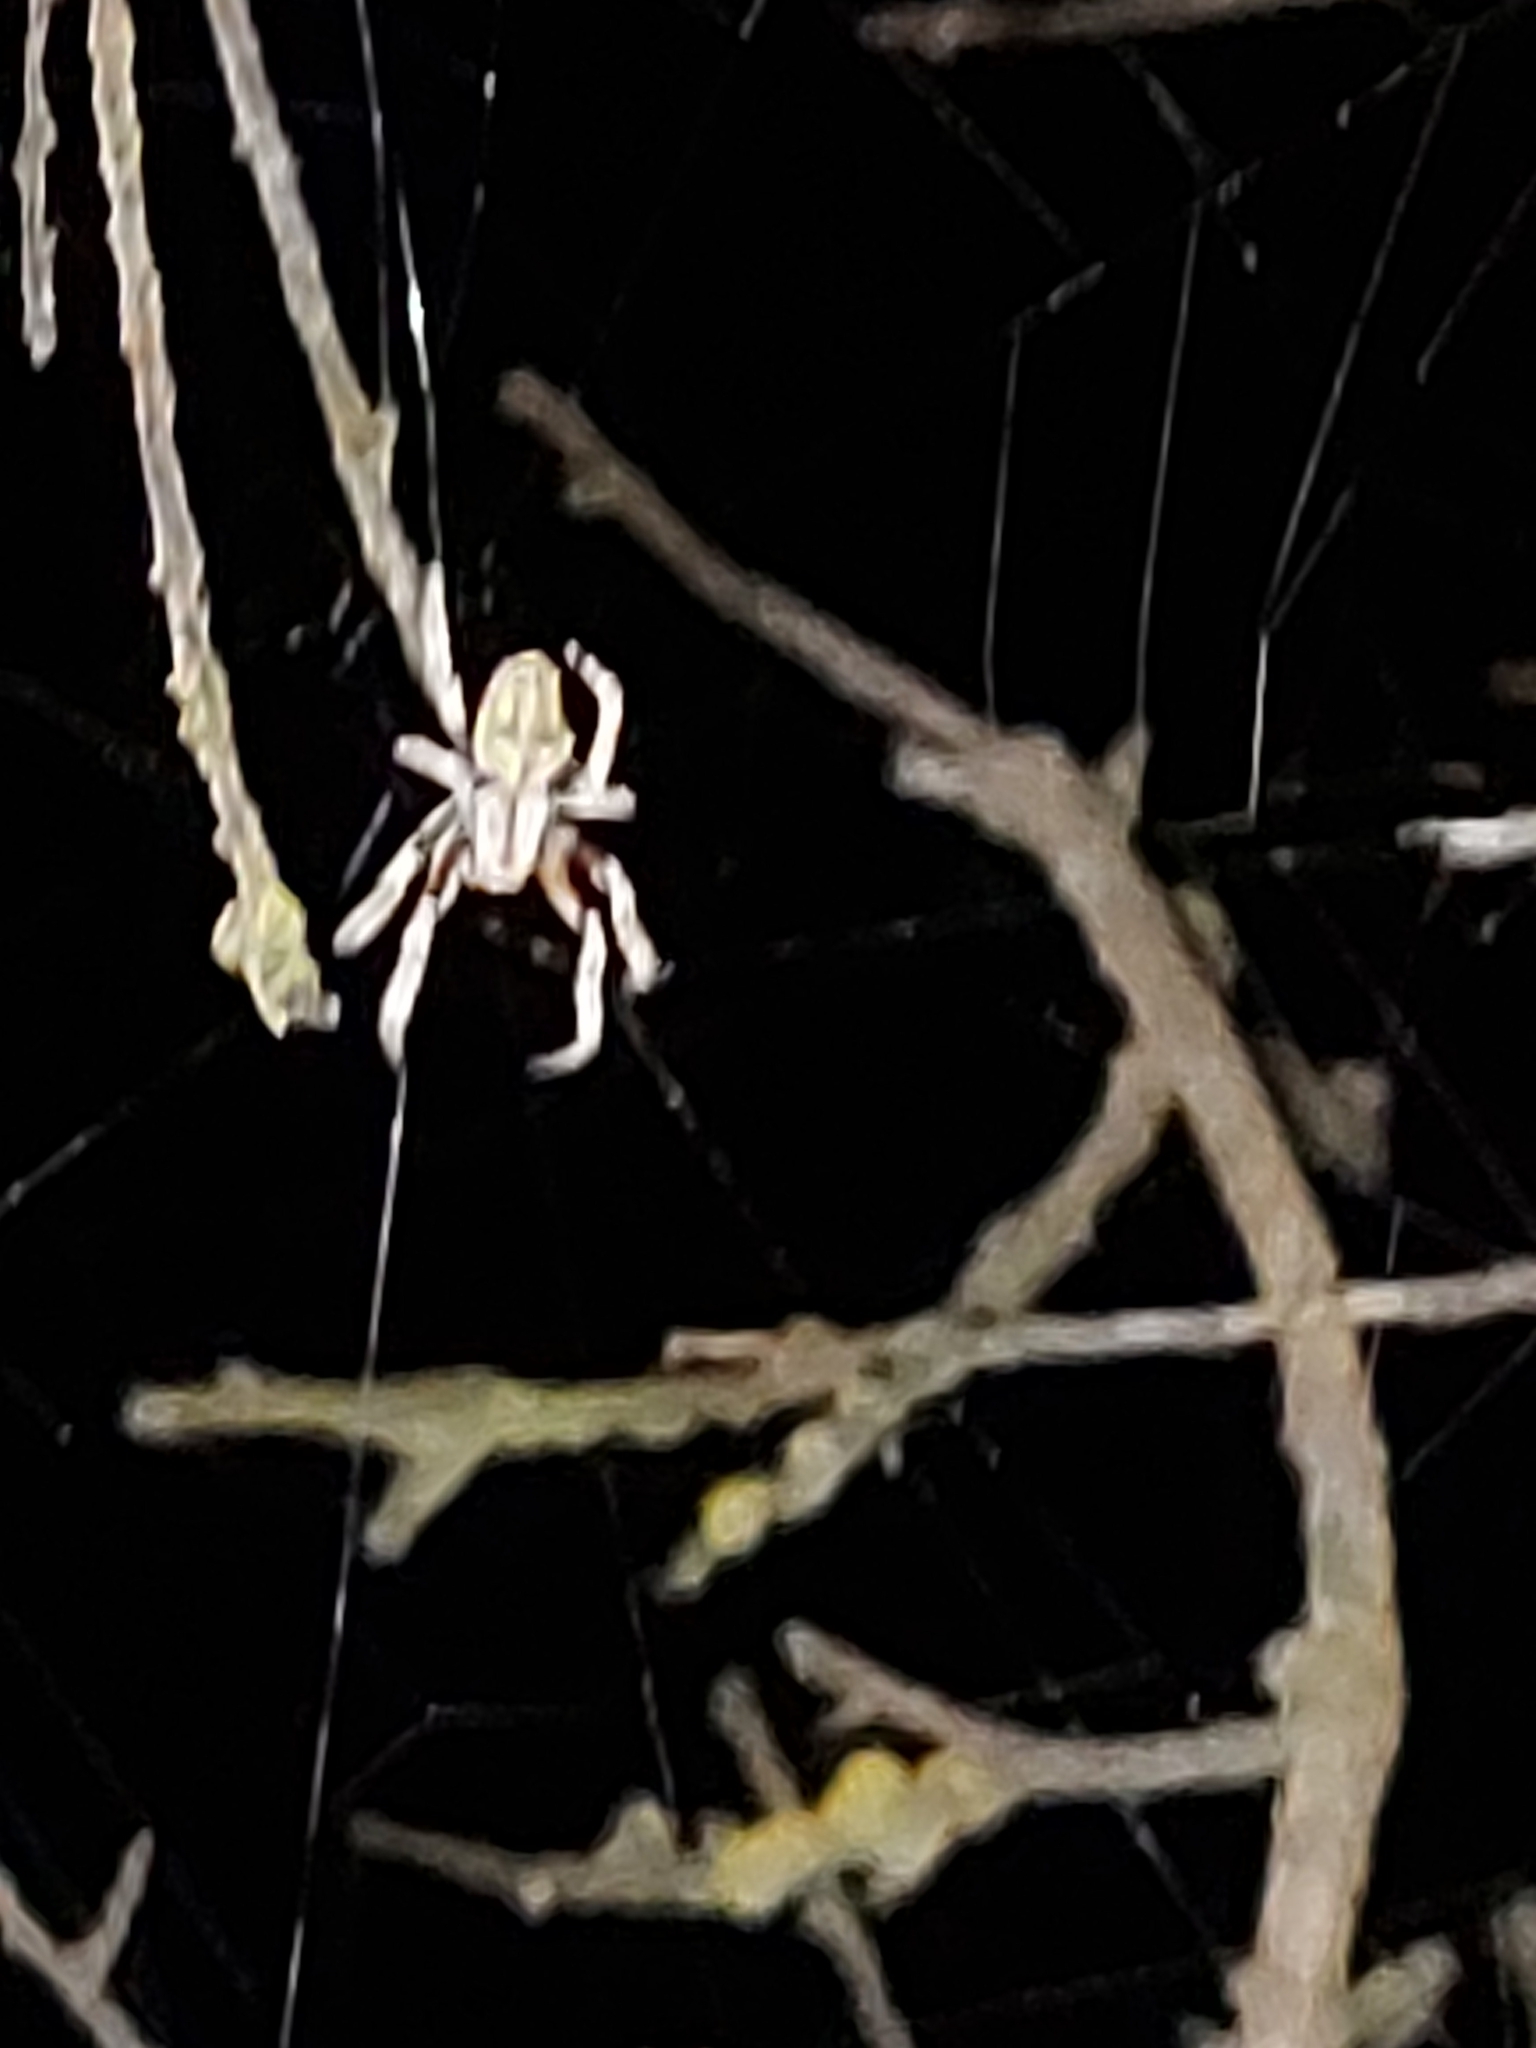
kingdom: Animalia
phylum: Arthropoda
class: Arachnida
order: Araneae
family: Araneidae
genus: Eriophora
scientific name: Eriophora pustulosa
